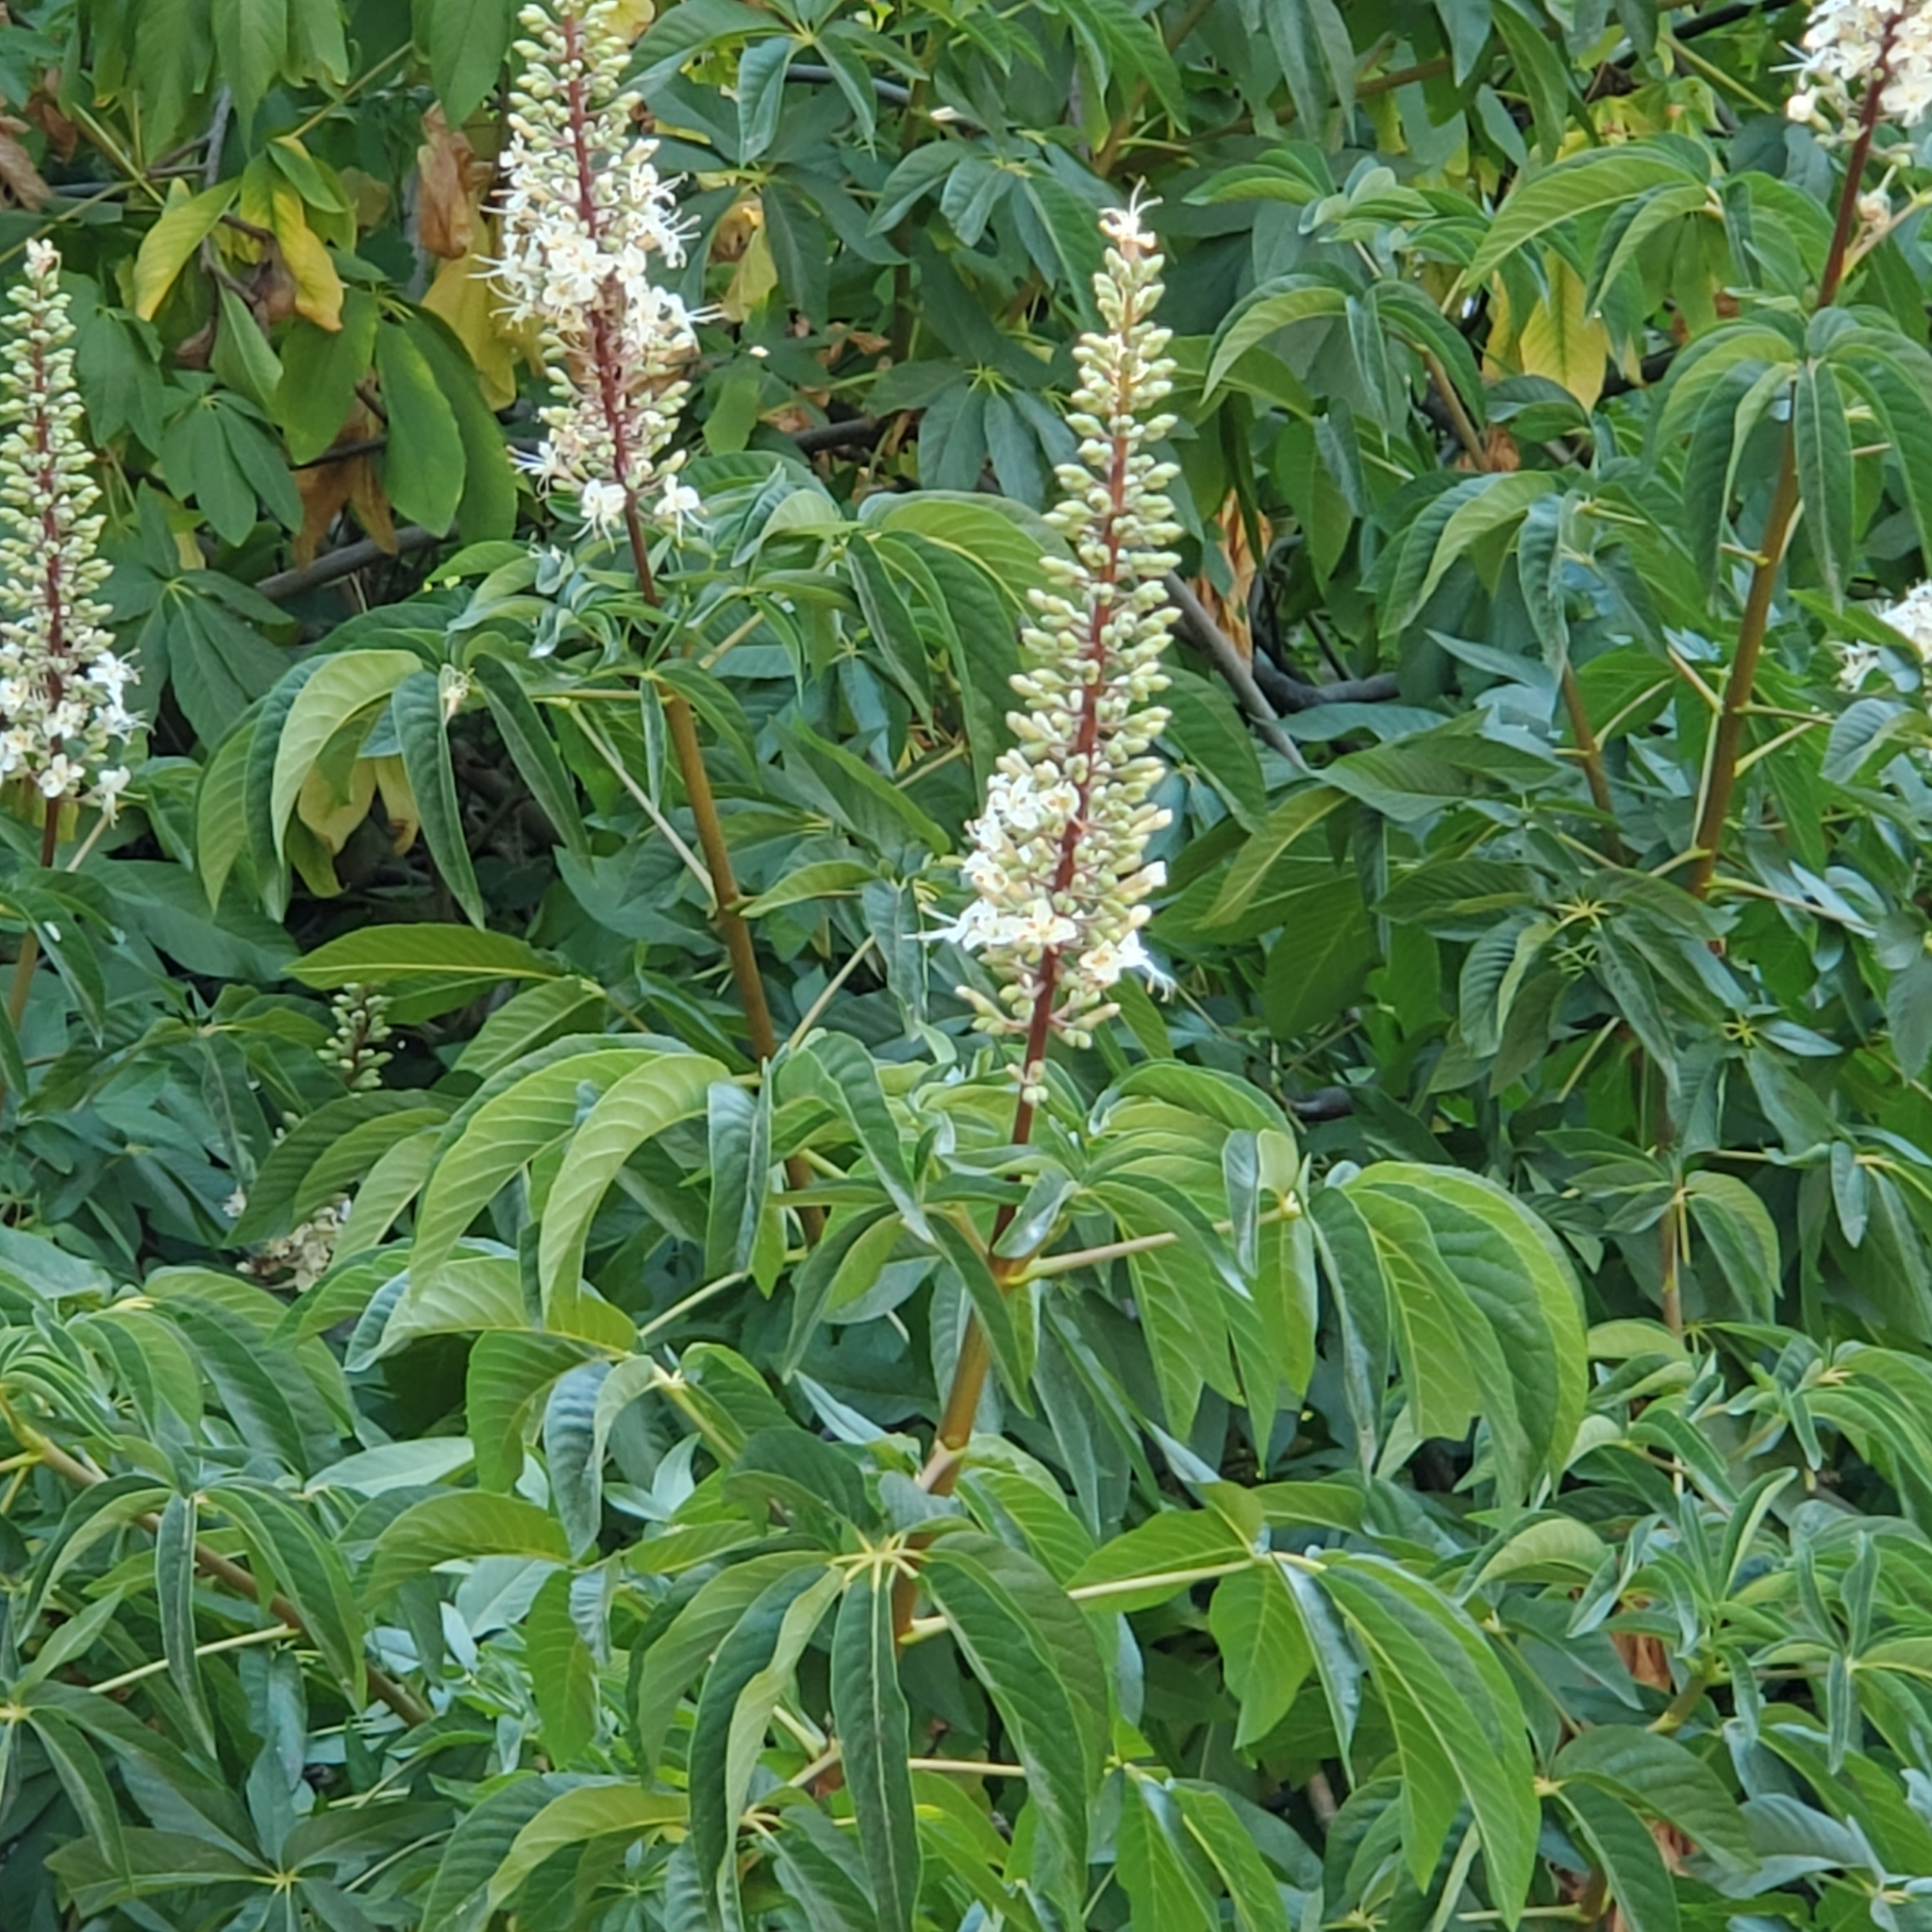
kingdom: Plantae
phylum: Tracheophyta
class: Magnoliopsida
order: Sapindales
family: Sapindaceae
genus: Aesculus
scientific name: Aesculus californica
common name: California buckeye
